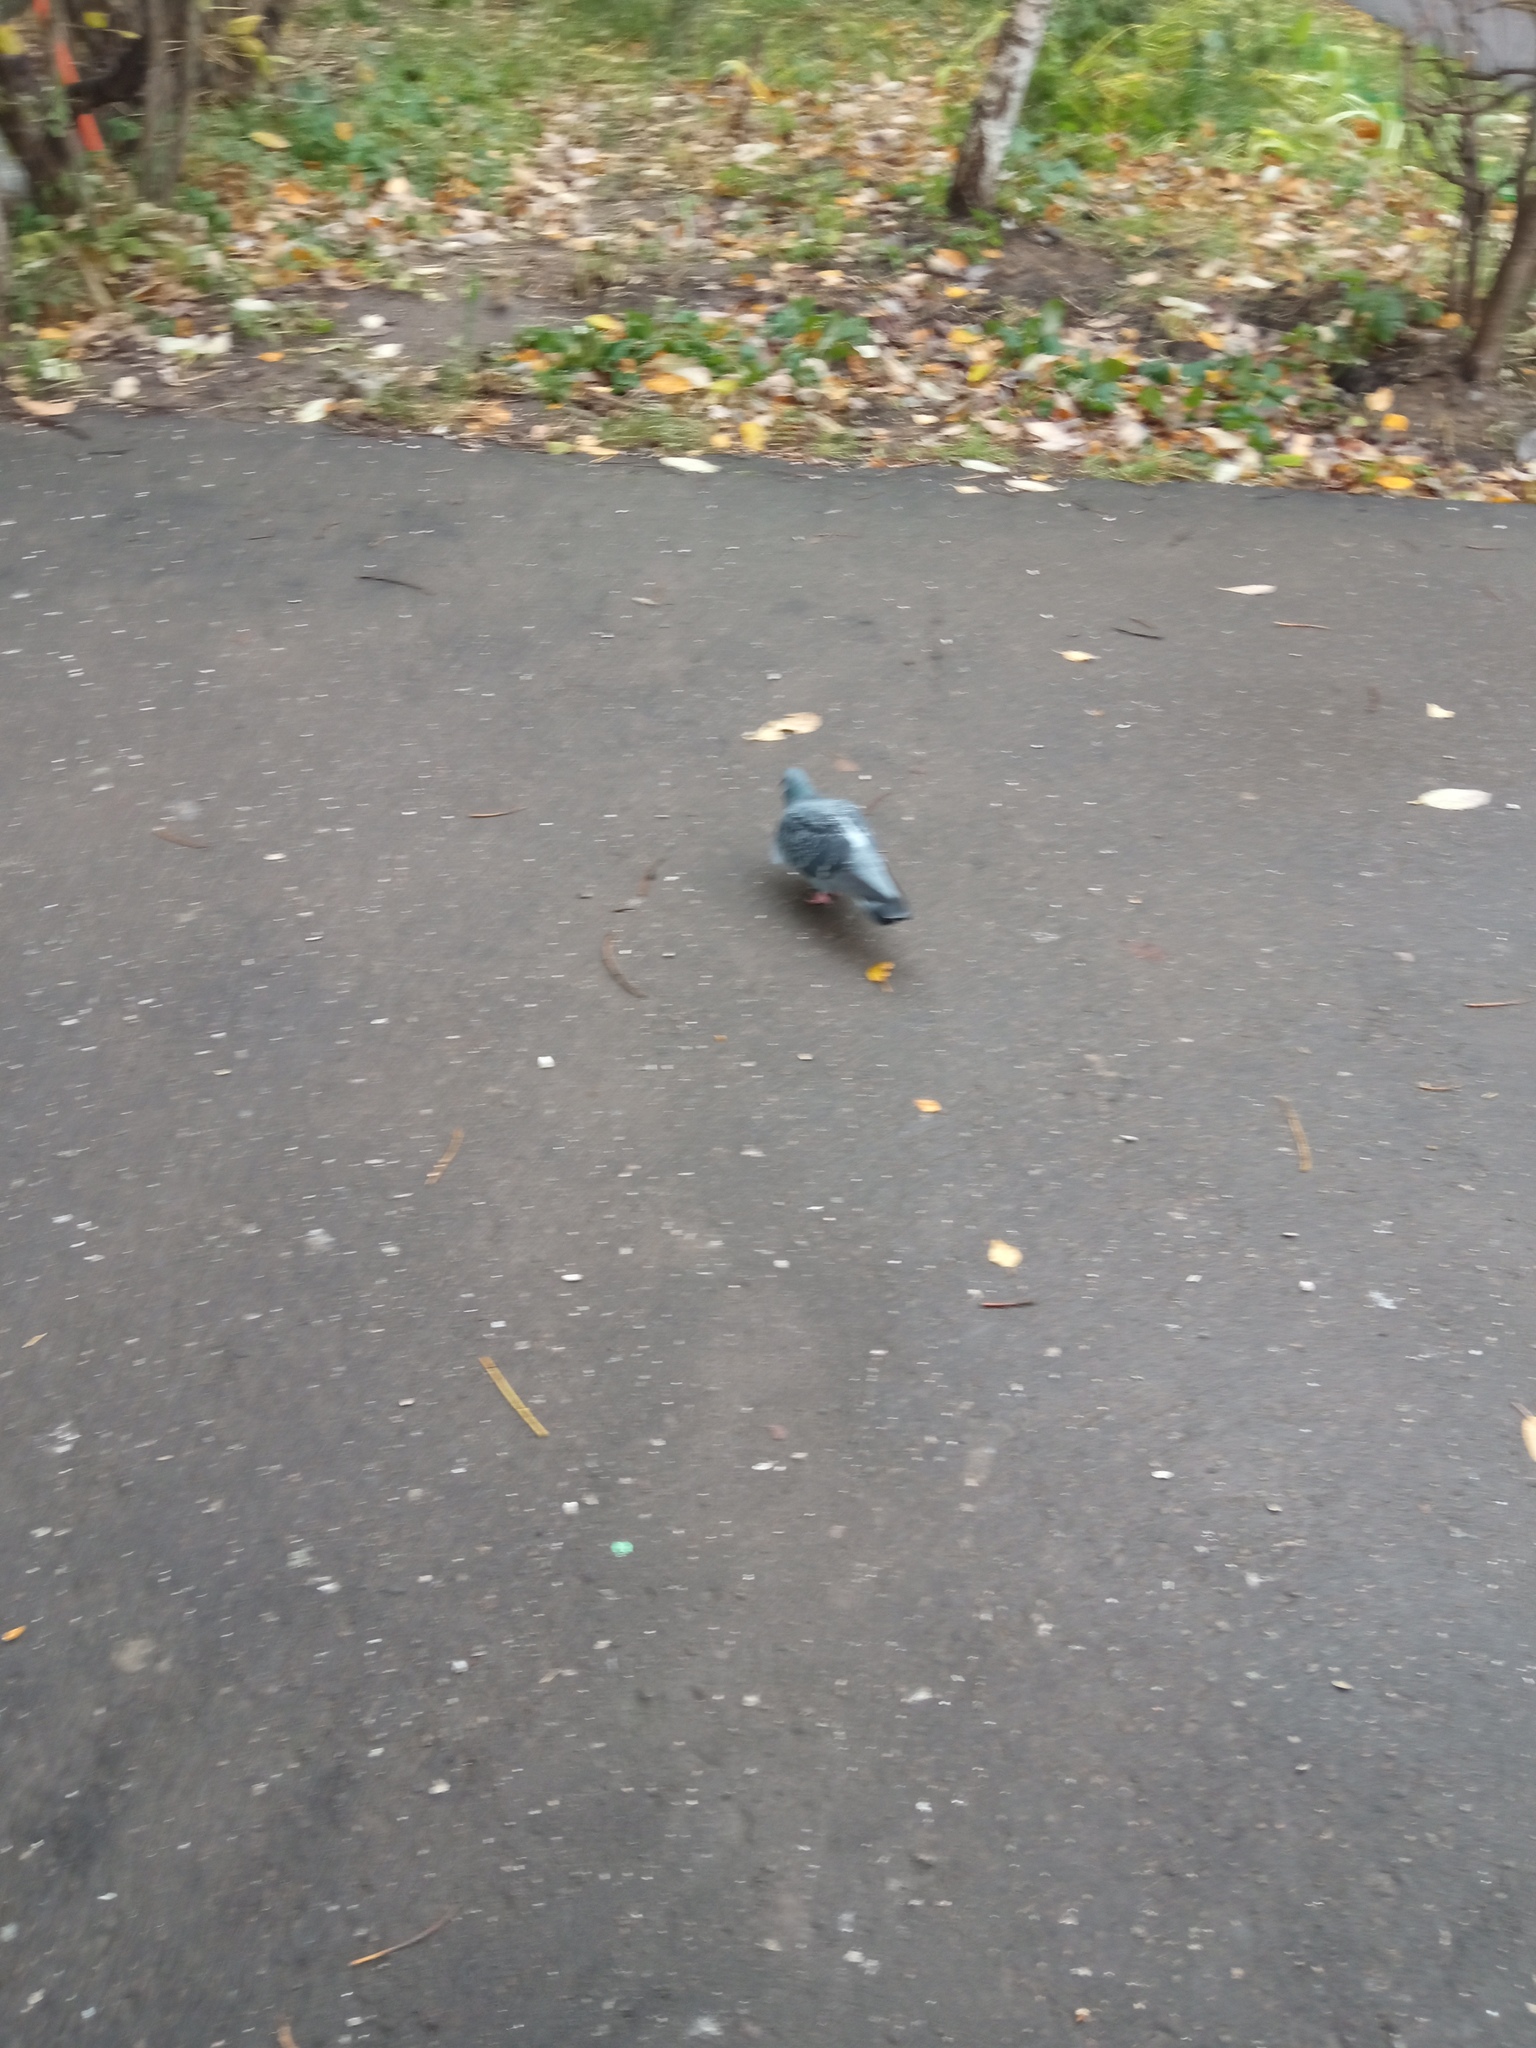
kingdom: Animalia
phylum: Chordata
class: Aves
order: Columbiformes
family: Columbidae
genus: Columba
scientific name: Columba livia
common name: Rock pigeon
